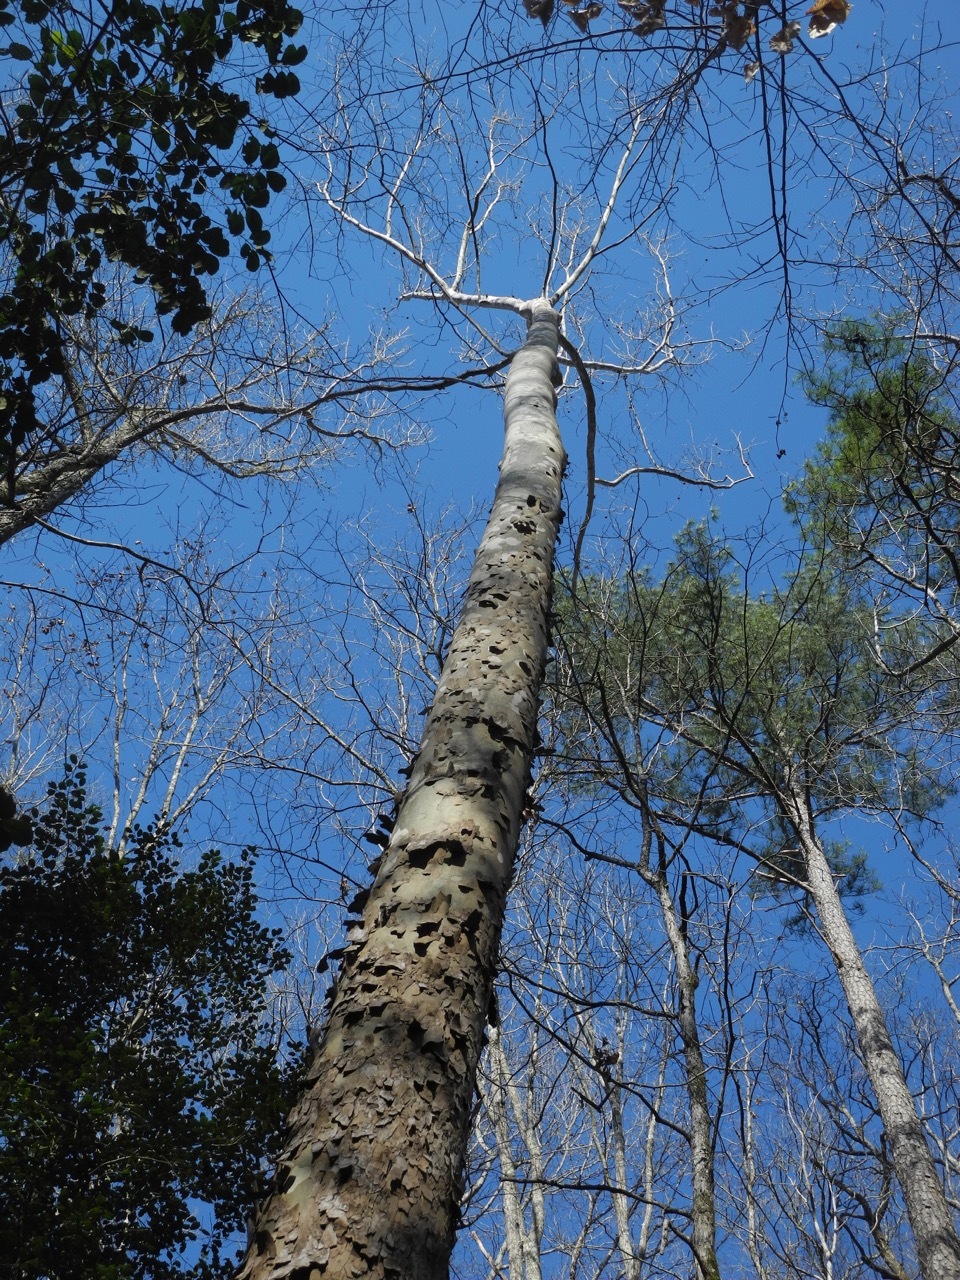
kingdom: Plantae
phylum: Tracheophyta
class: Magnoliopsida
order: Proteales
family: Platanaceae
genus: Platanus
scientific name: Platanus occidentalis
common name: American sycamore
